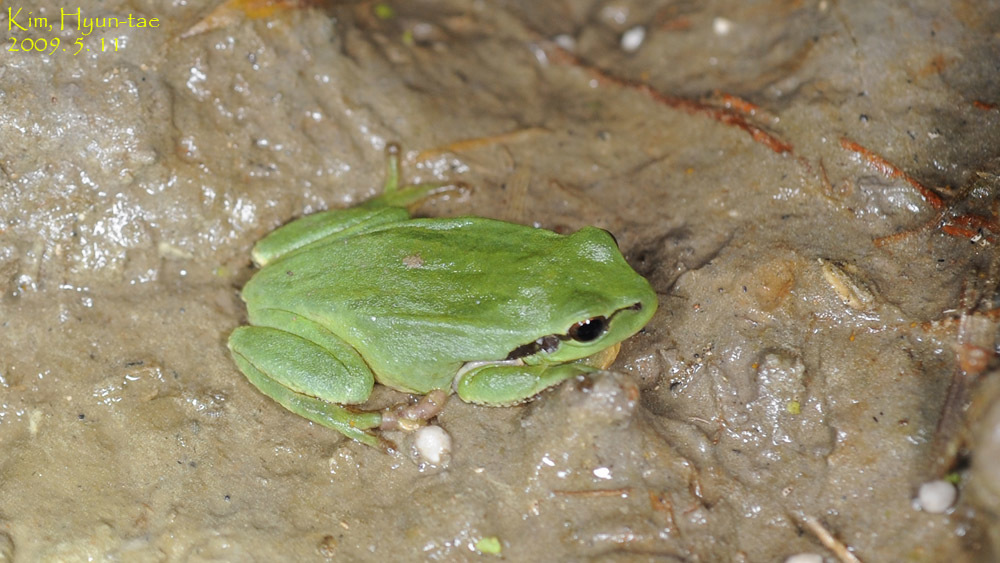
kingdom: Animalia
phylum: Chordata
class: Amphibia
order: Anura
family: Hylidae
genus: Dryophytes
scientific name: Dryophytes japonicus
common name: Japanese treefrog
